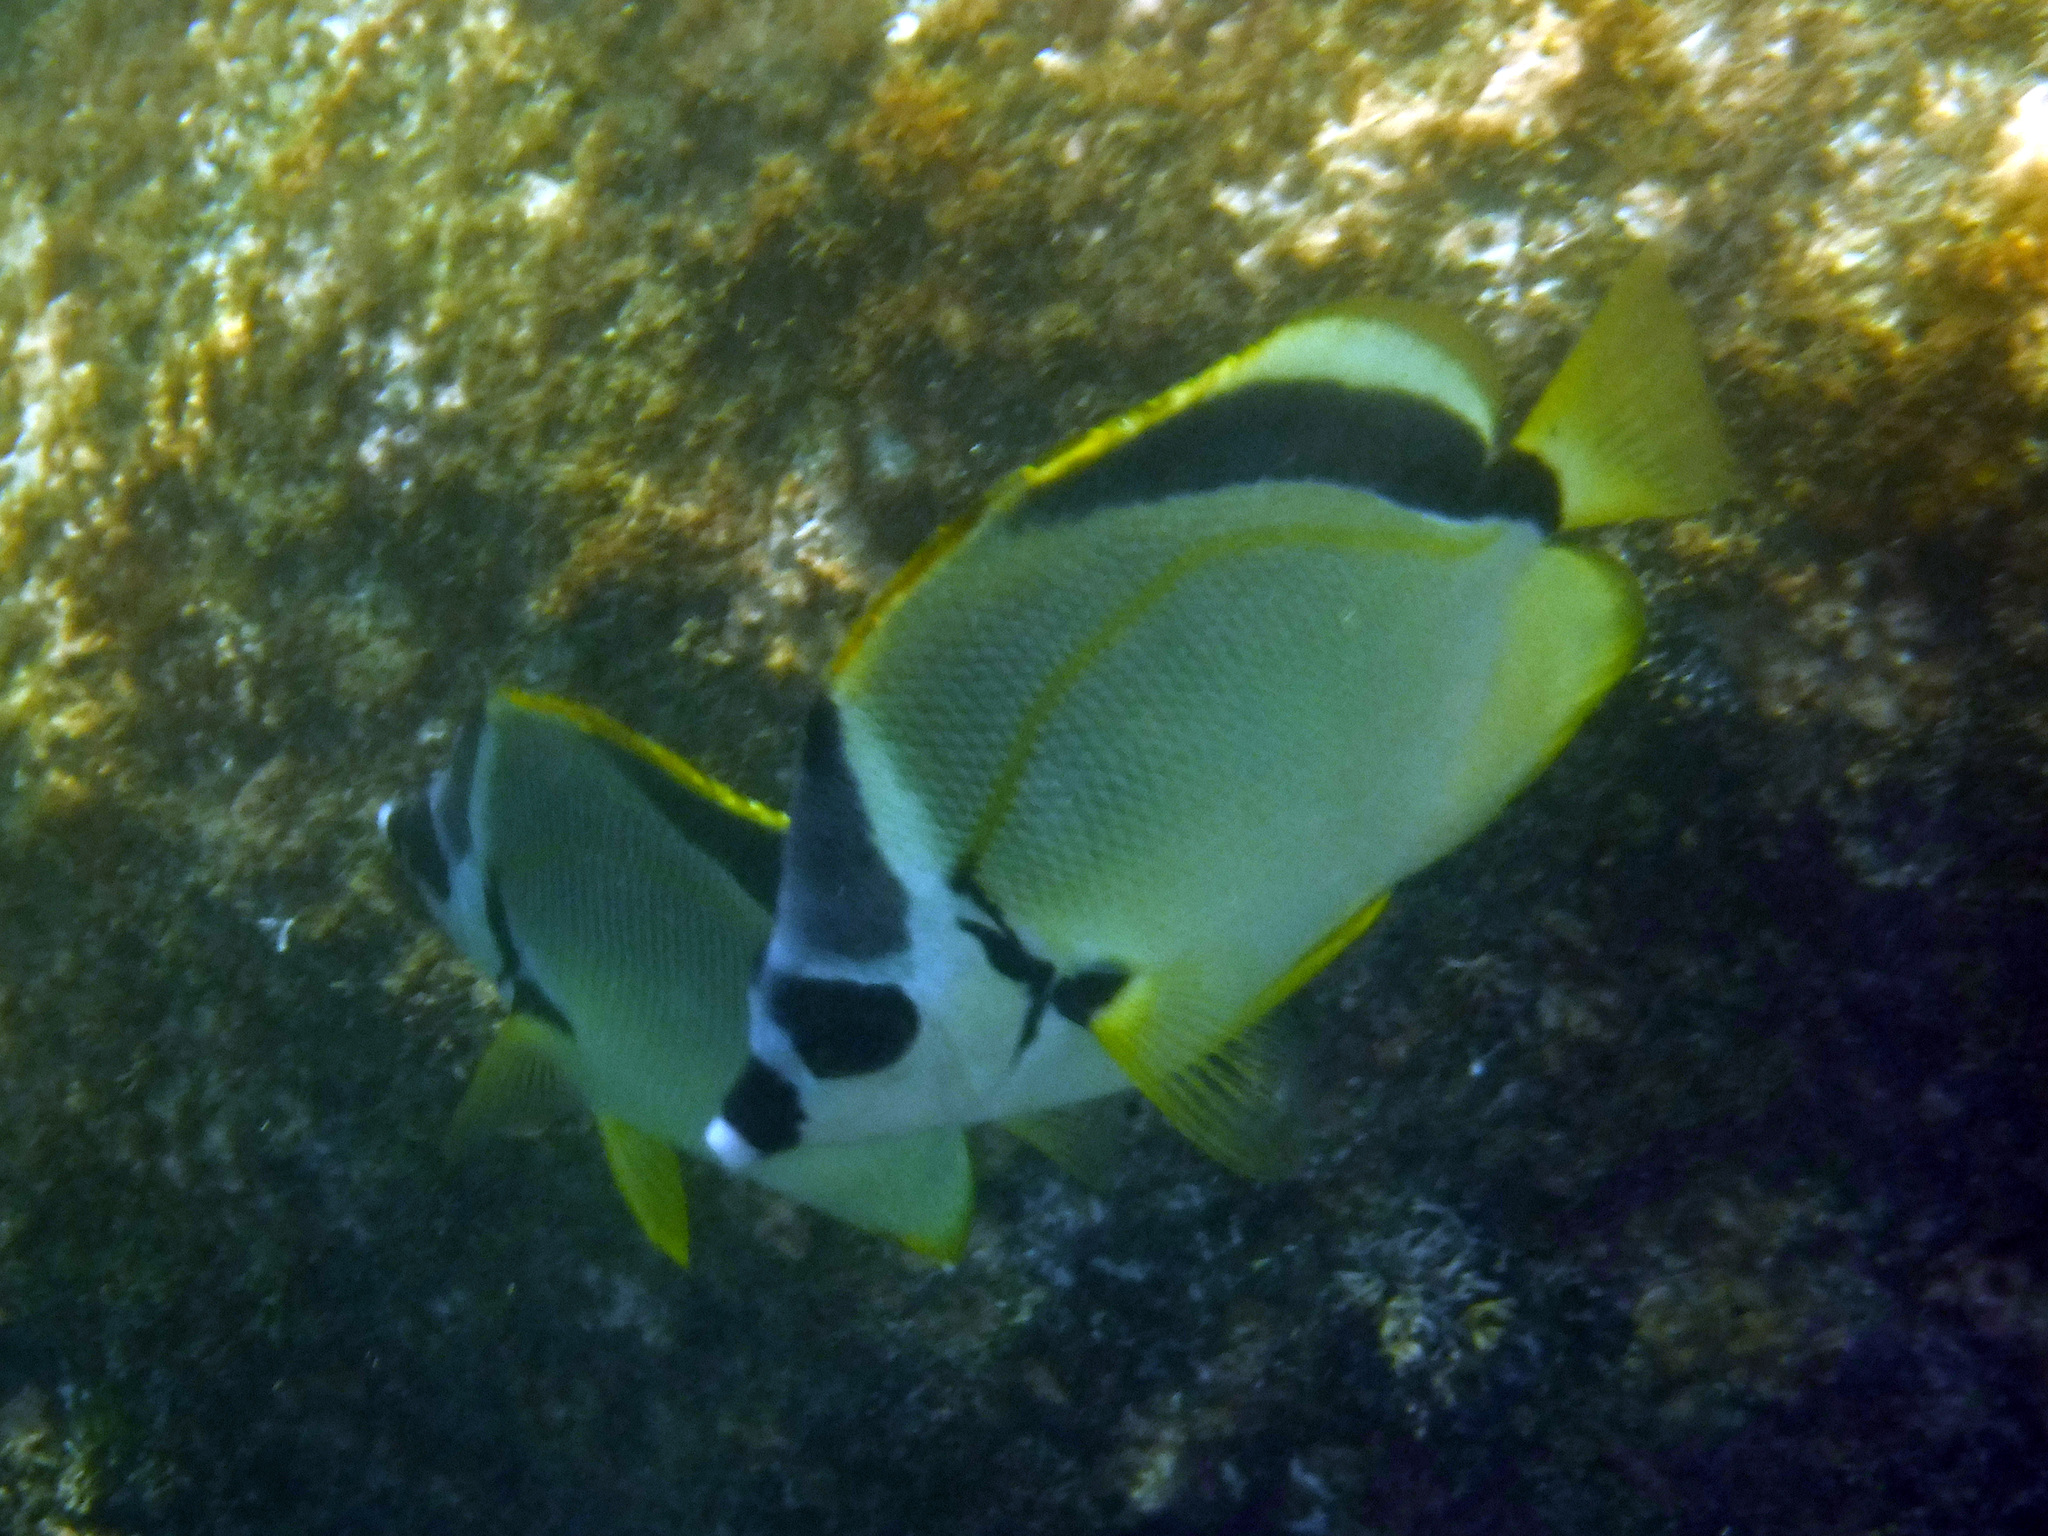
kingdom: Animalia
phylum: Chordata
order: Perciformes
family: Chaetodontidae
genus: Johnrandallia
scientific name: Johnrandallia nigrirostris
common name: Barberfish
